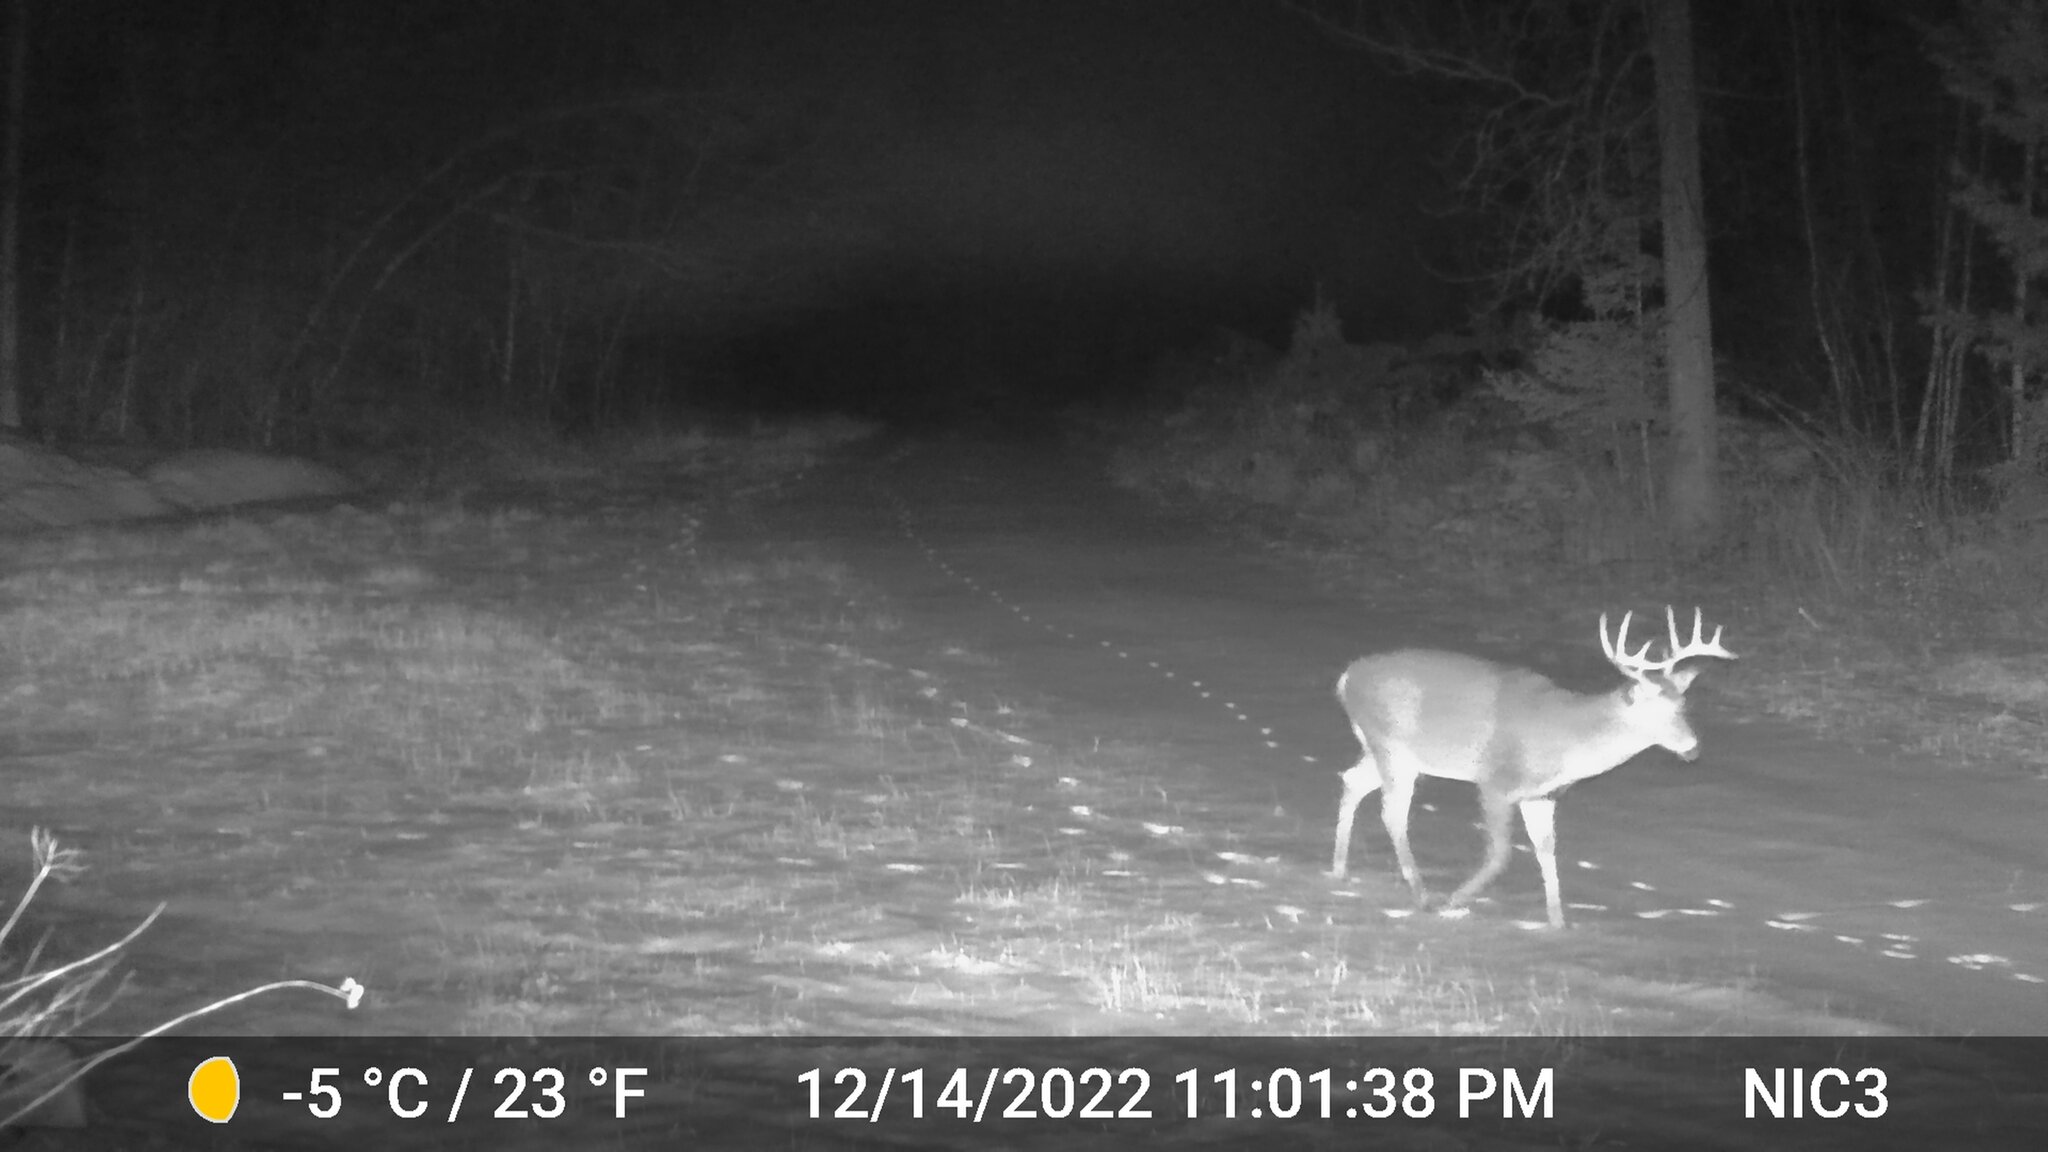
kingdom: Animalia
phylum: Chordata
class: Mammalia
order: Artiodactyla
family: Cervidae
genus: Odocoileus
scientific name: Odocoileus virginianus
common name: White-tailed deer
